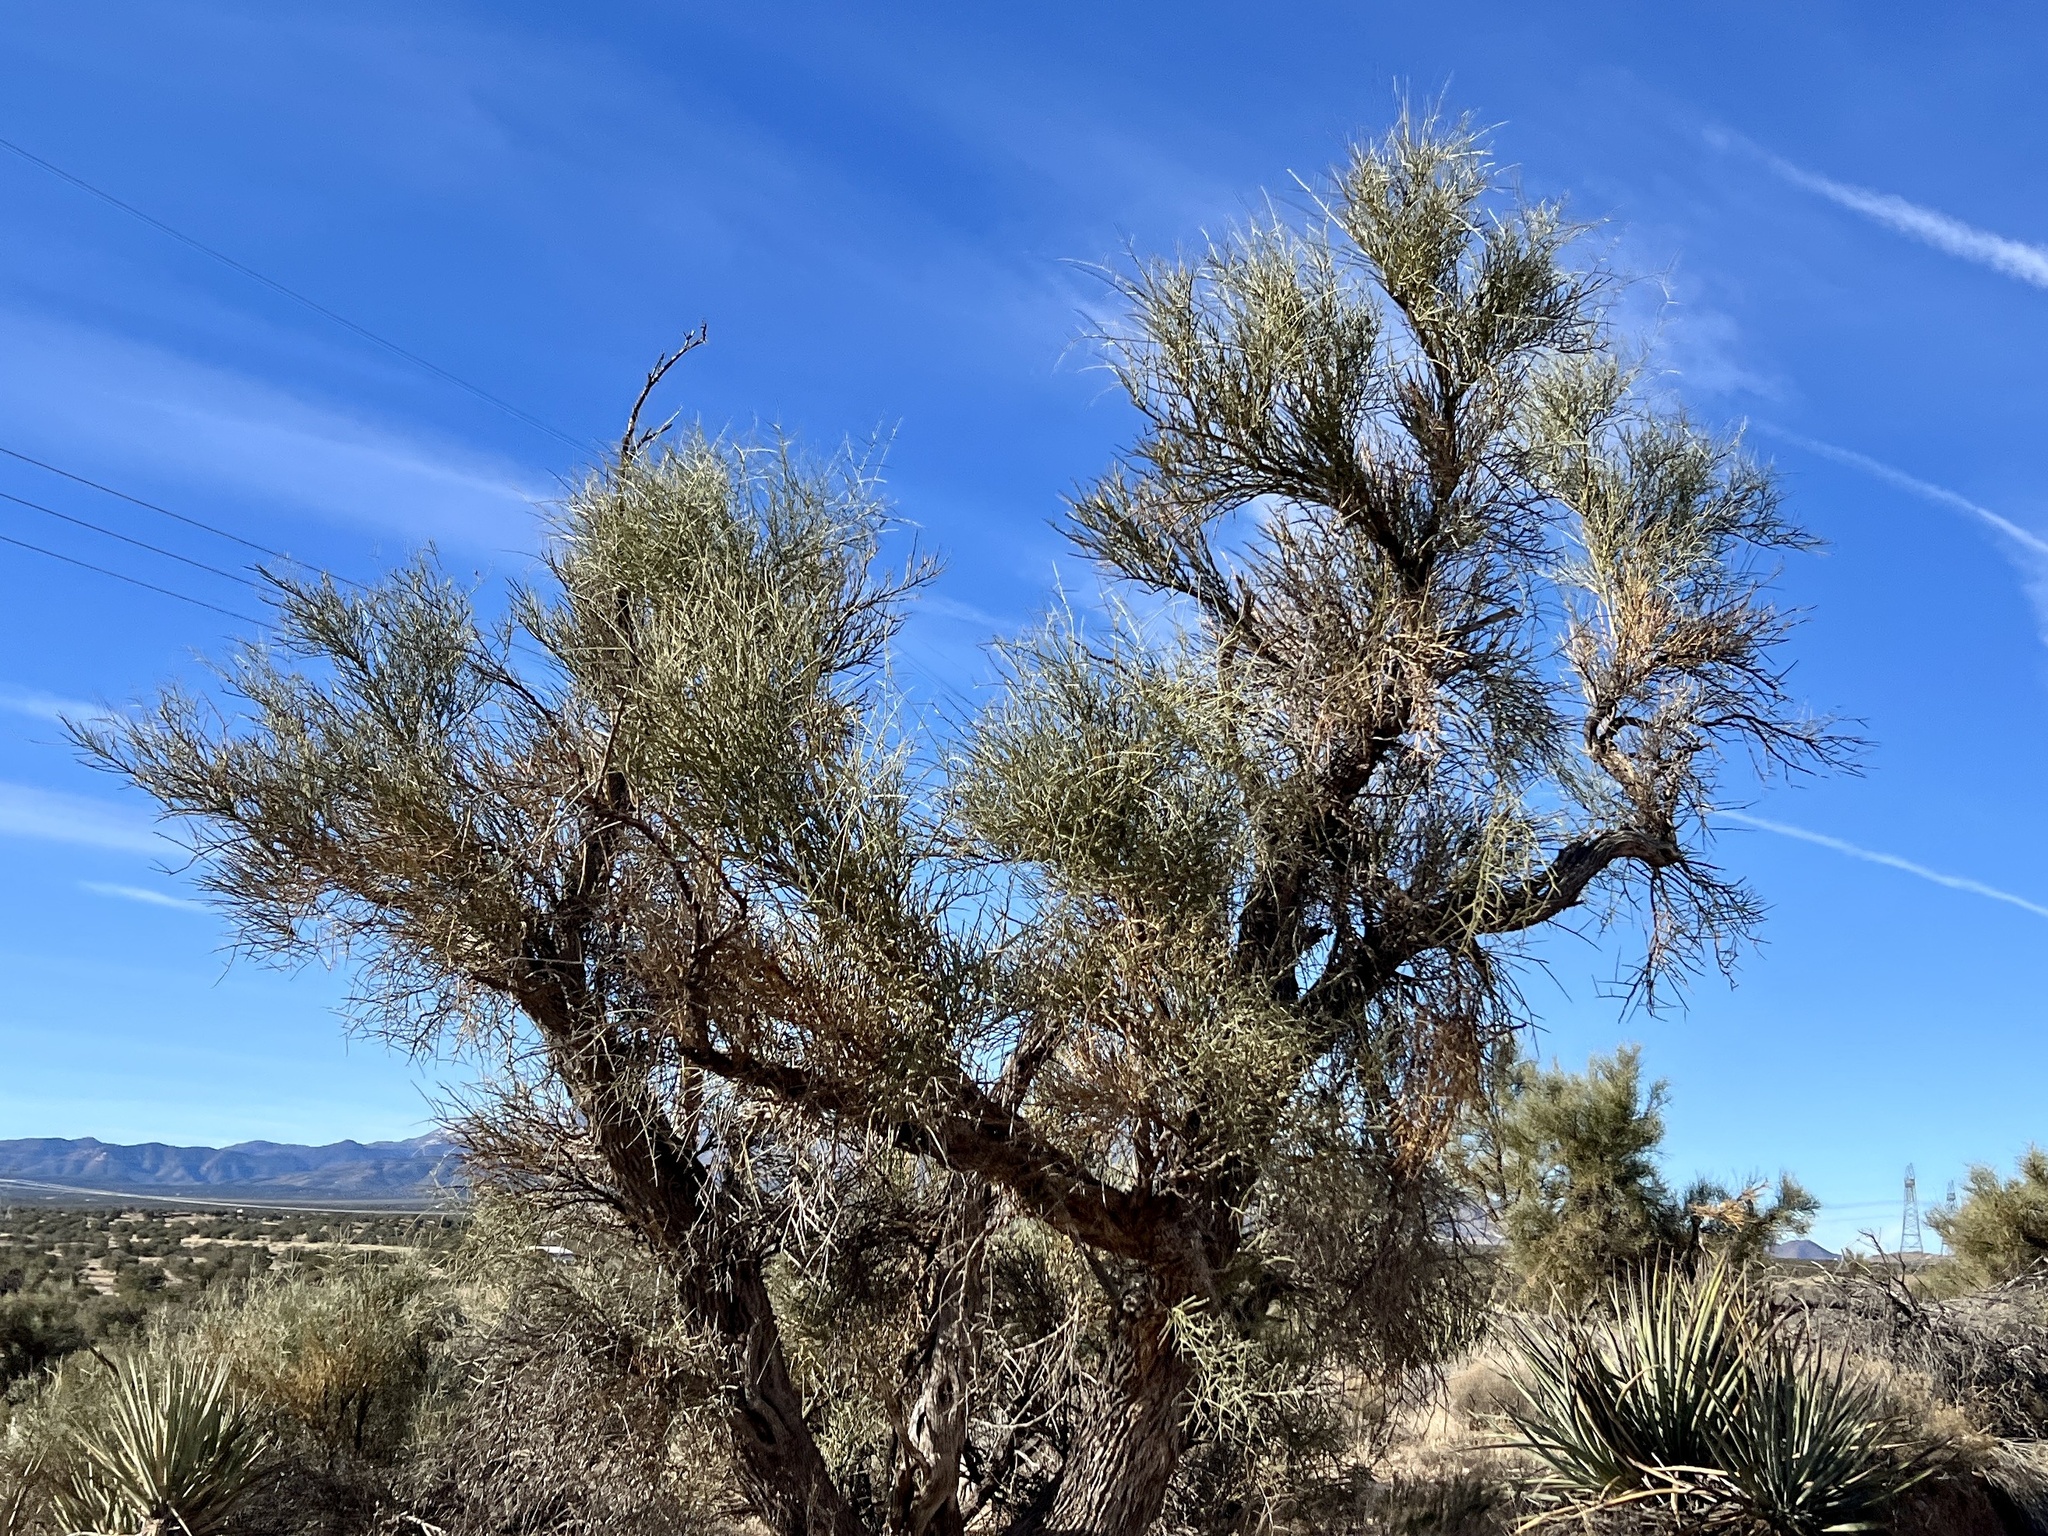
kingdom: Plantae
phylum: Tracheophyta
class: Magnoliopsida
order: Celastrales
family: Celastraceae
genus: Canotia
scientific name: Canotia holacantha
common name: Crucifixion thorns
